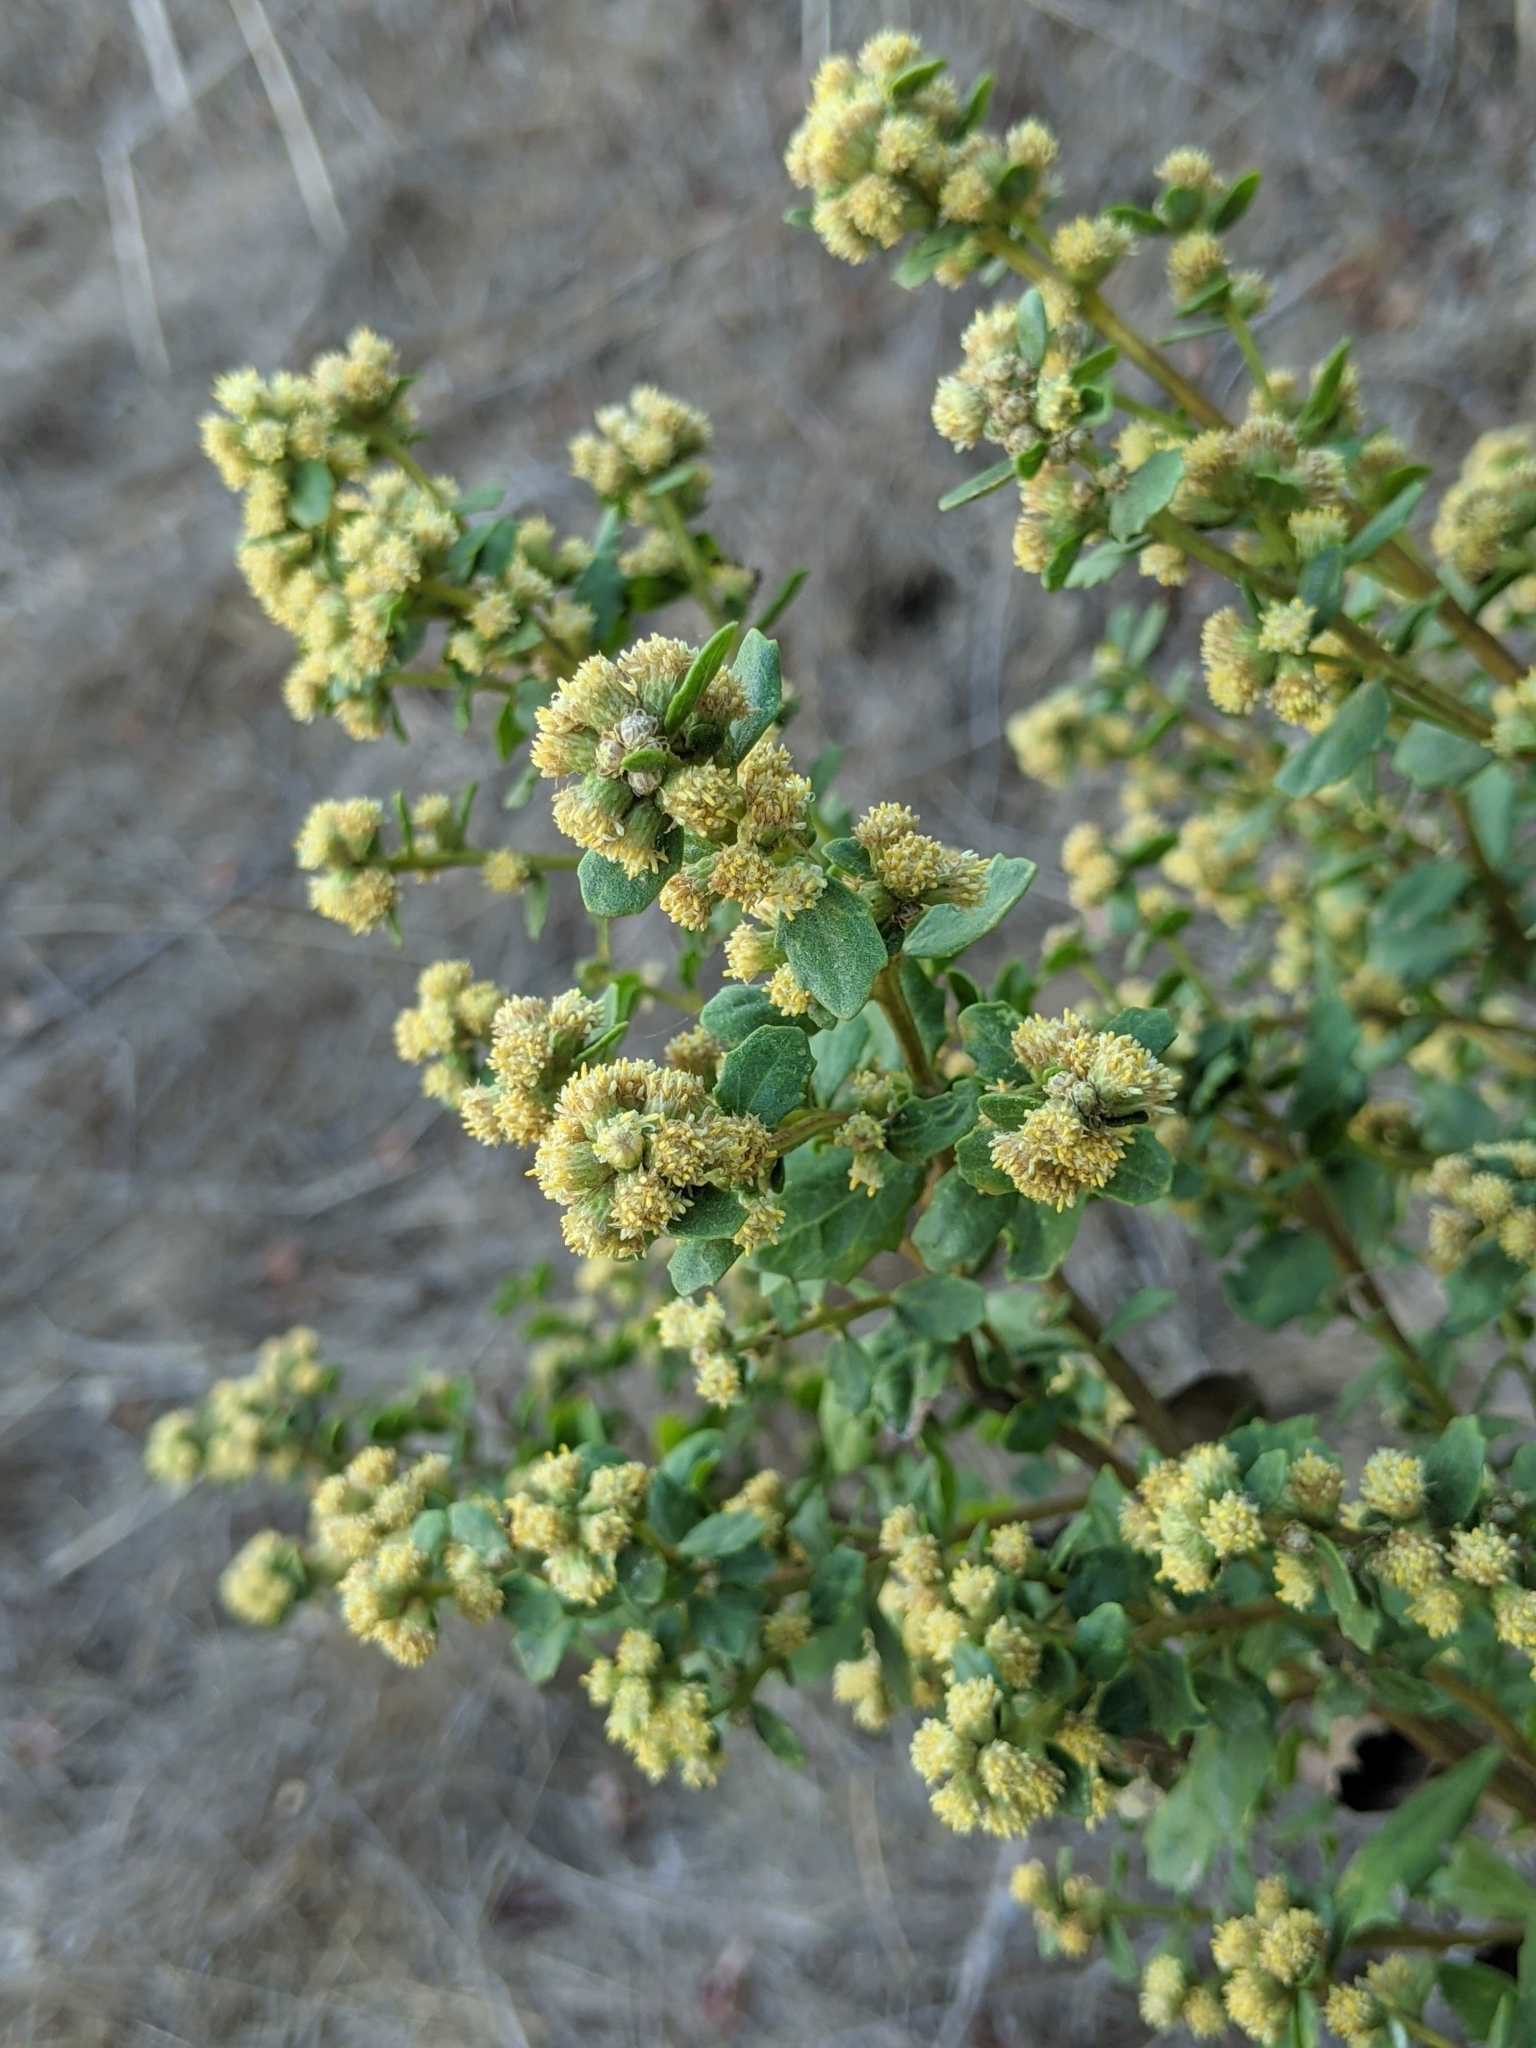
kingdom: Plantae
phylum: Tracheophyta
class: Magnoliopsida
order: Asterales
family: Asteraceae
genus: Baccharis
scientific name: Baccharis pilularis
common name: Coyotebrush
